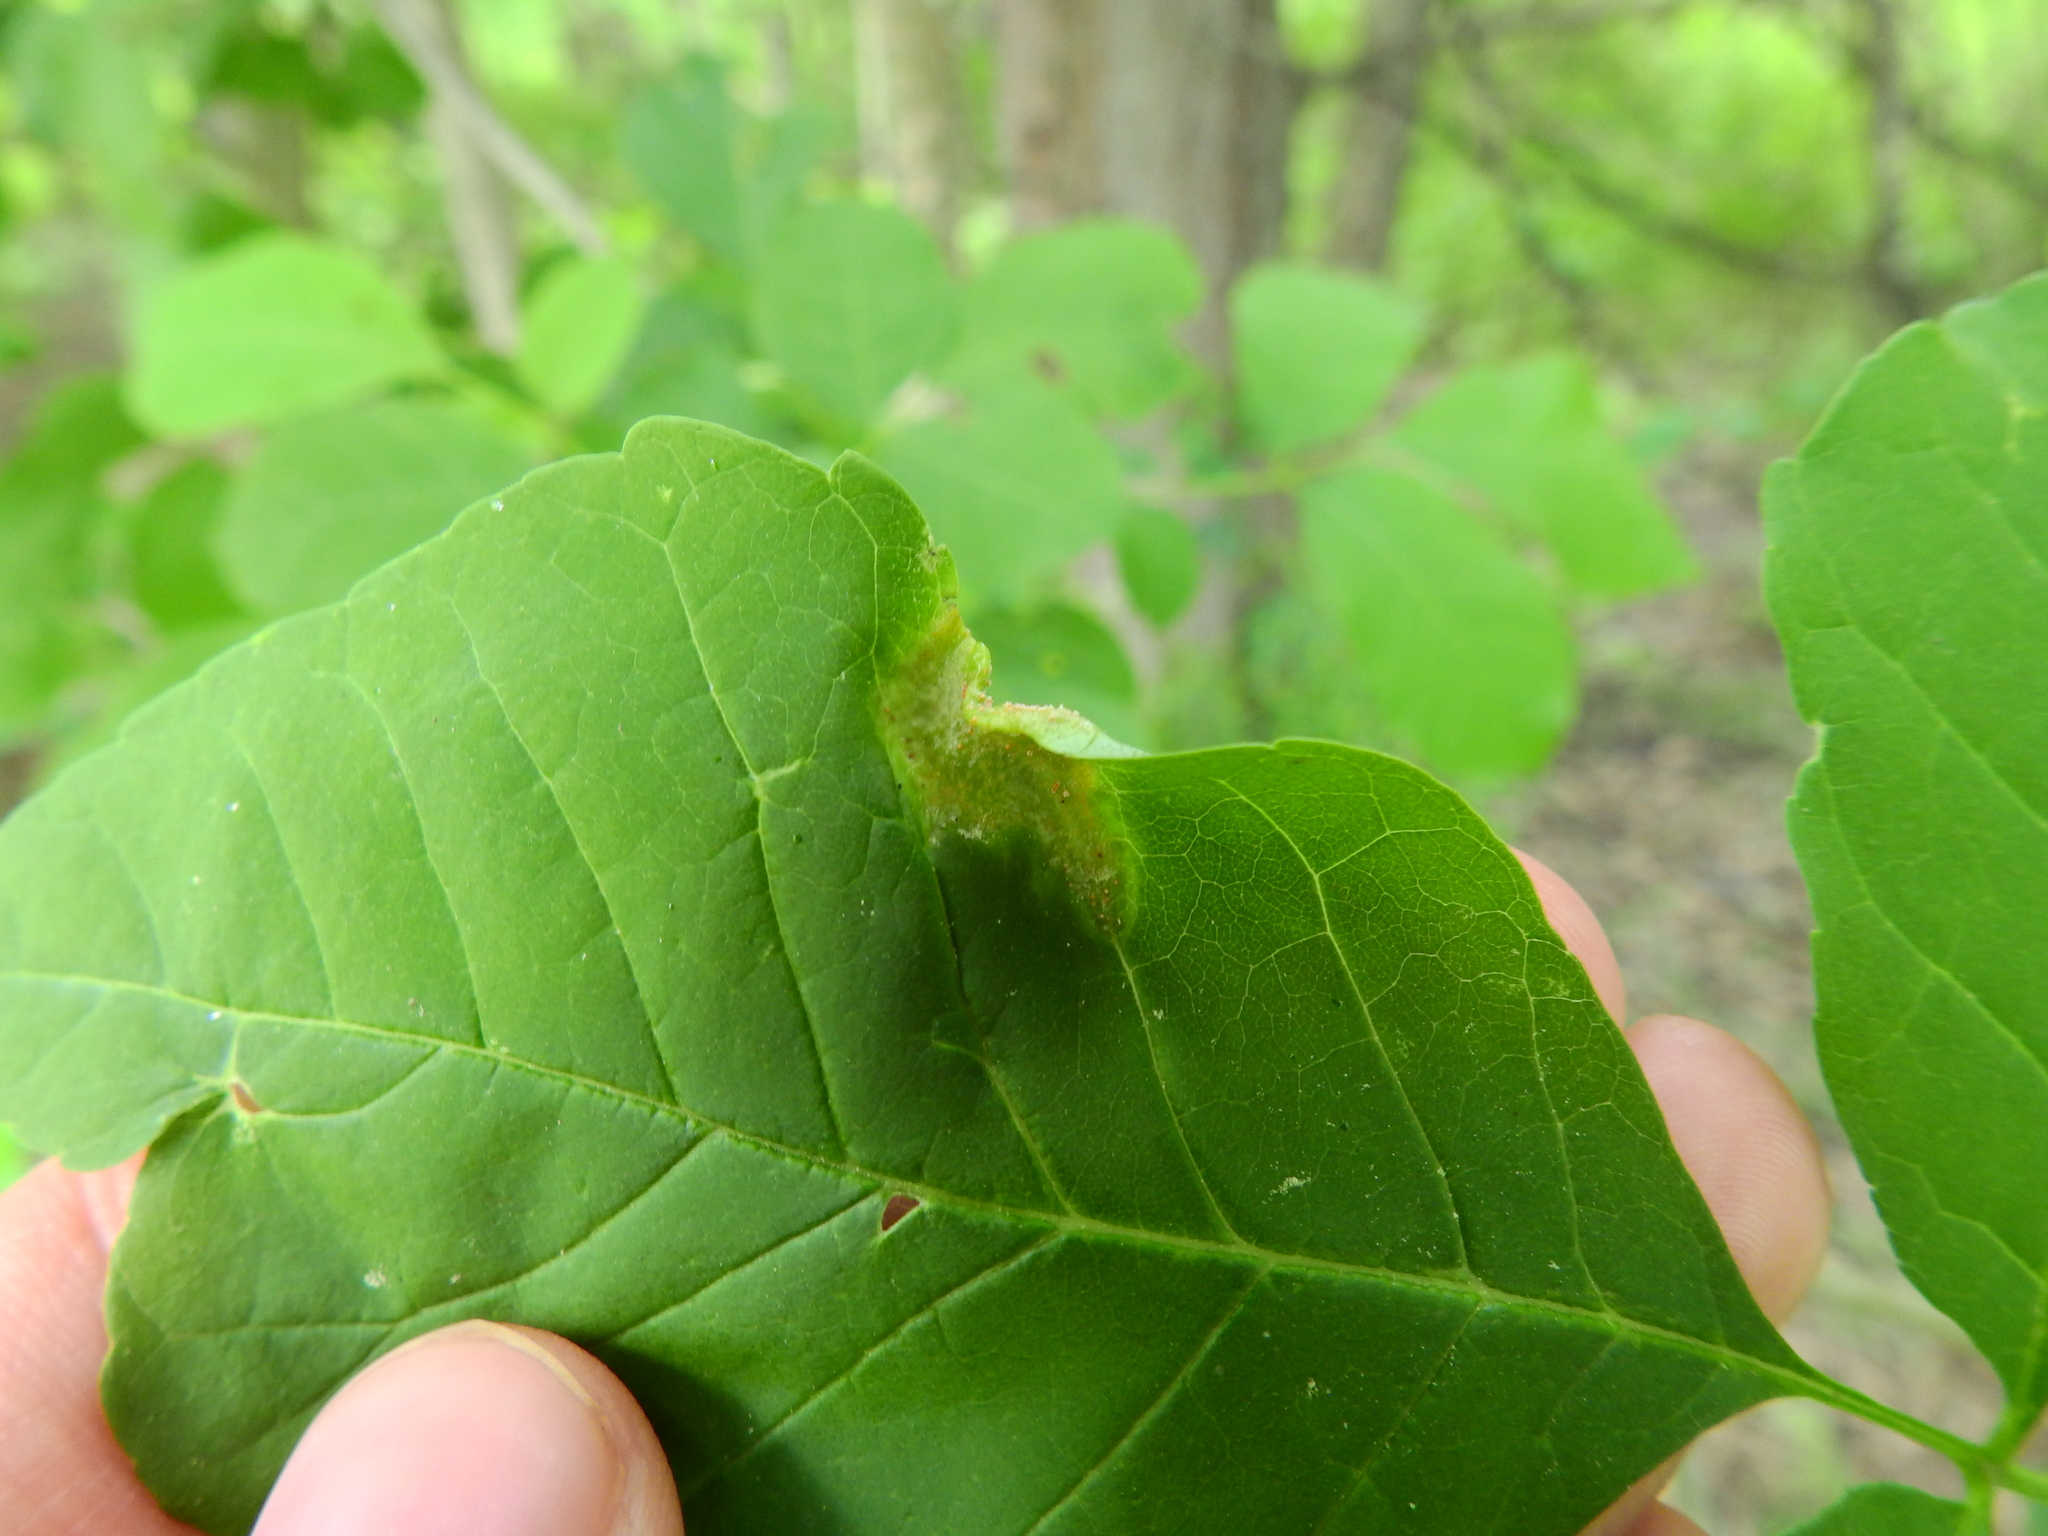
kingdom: Fungi
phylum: Basidiomycota
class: Pucciniomycetes
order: Pucciniales
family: Pucciniaceae
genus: Puccinia
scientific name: Puccinia sparganioidis
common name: Ash rust
